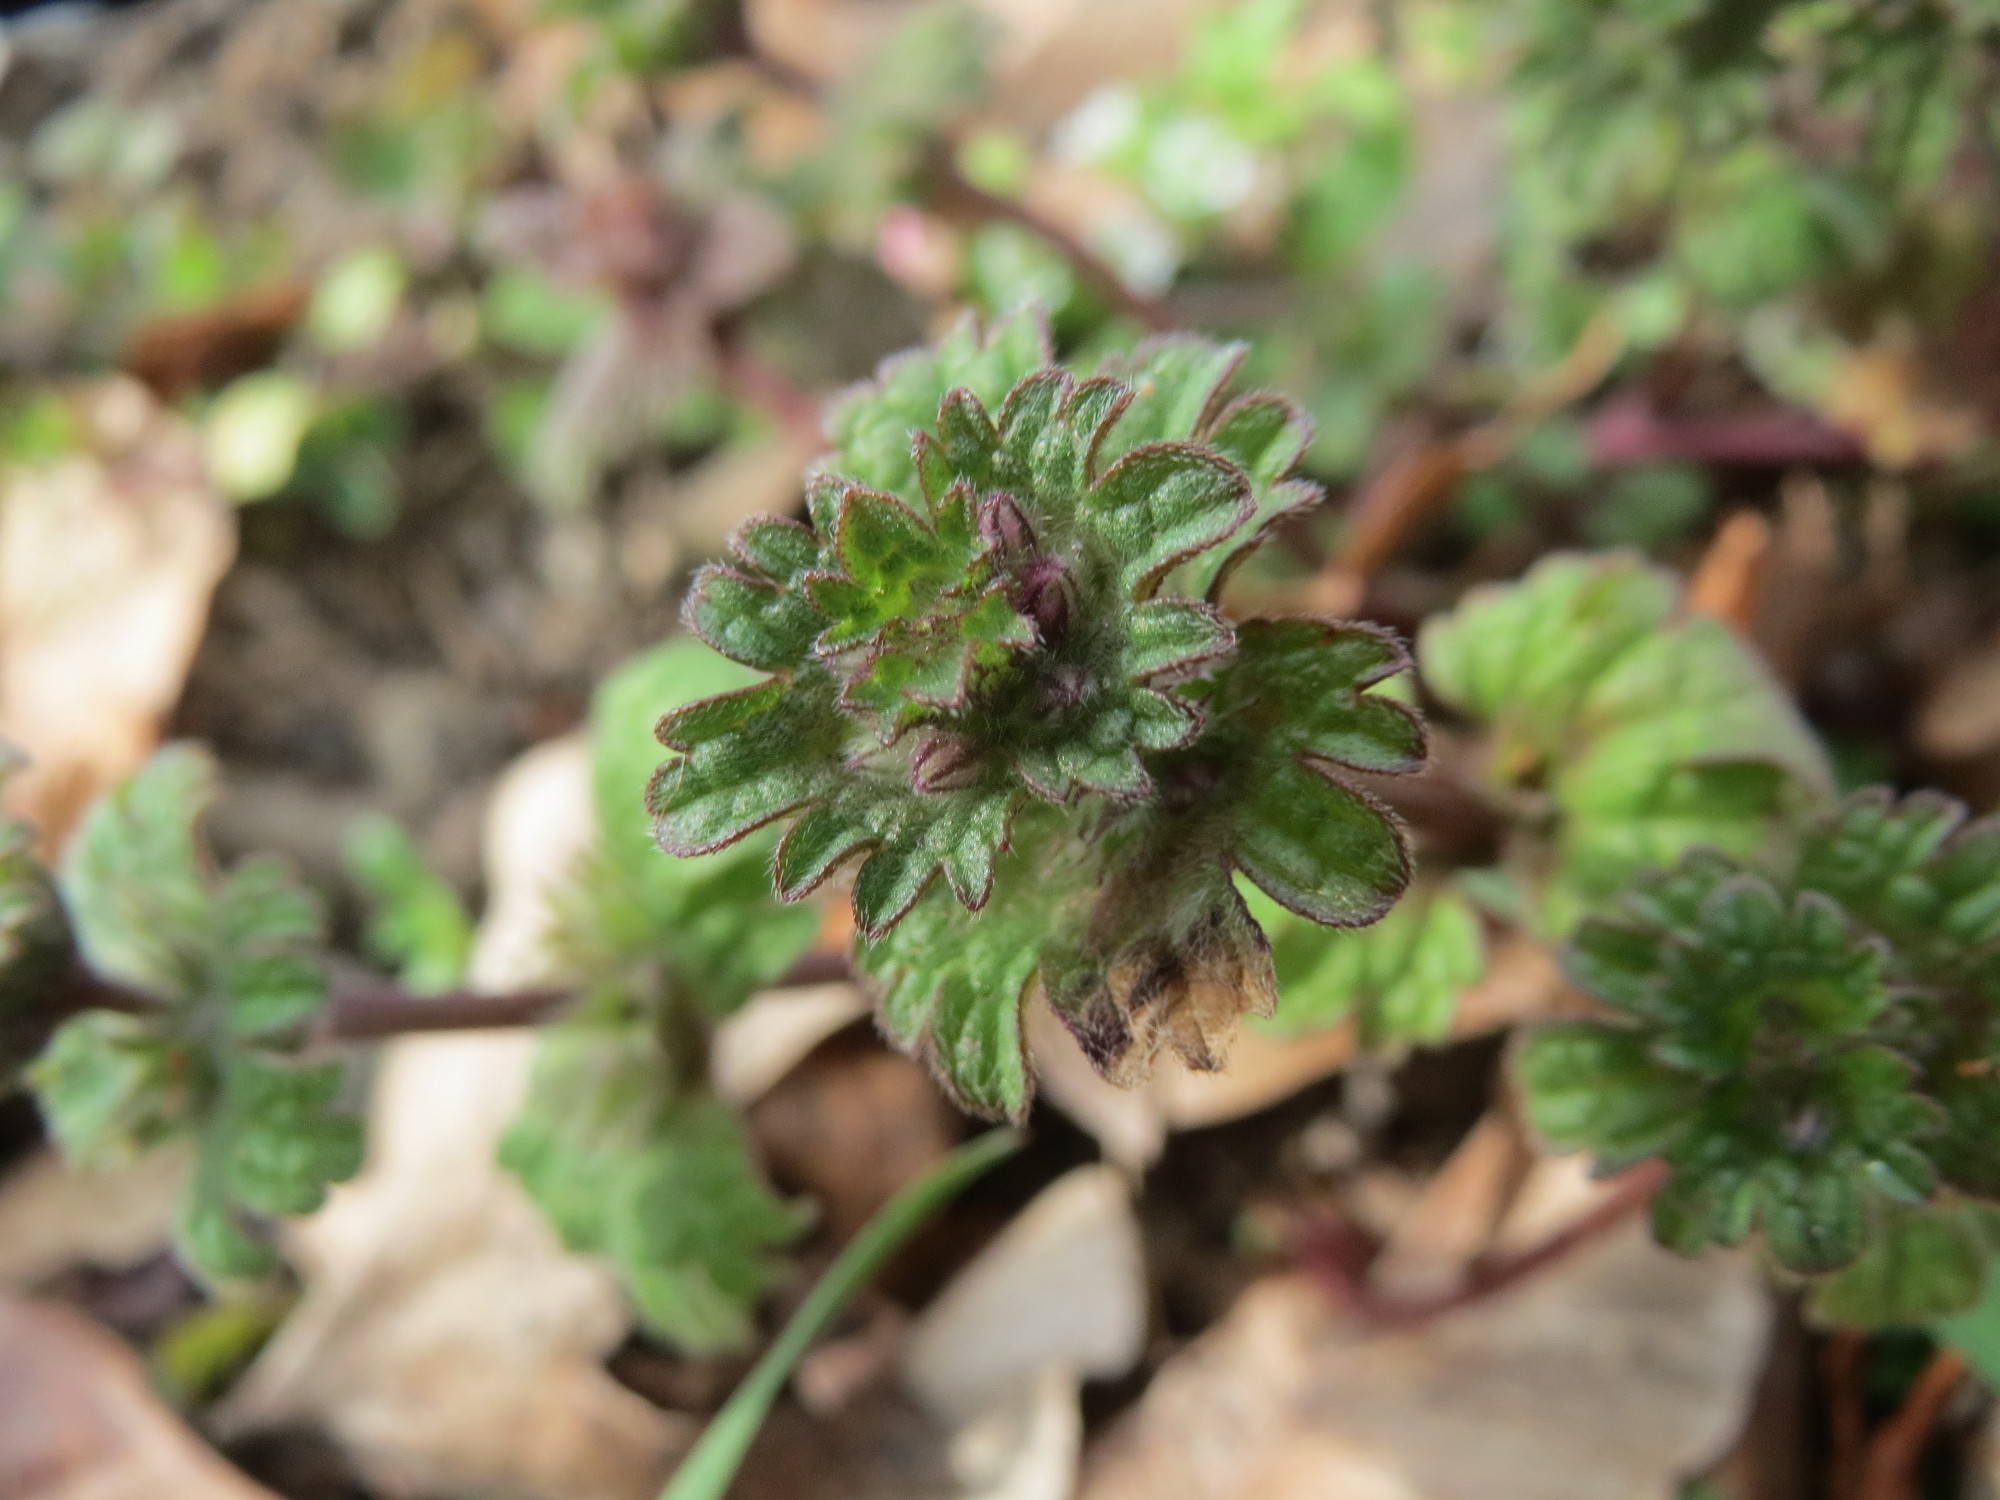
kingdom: Plantae
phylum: Tracheophyta
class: Magnoliopsida
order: Lamiales
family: Lamiaceae
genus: Lamium
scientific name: Lamium amplexicaule
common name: Henbit dead-nettle
